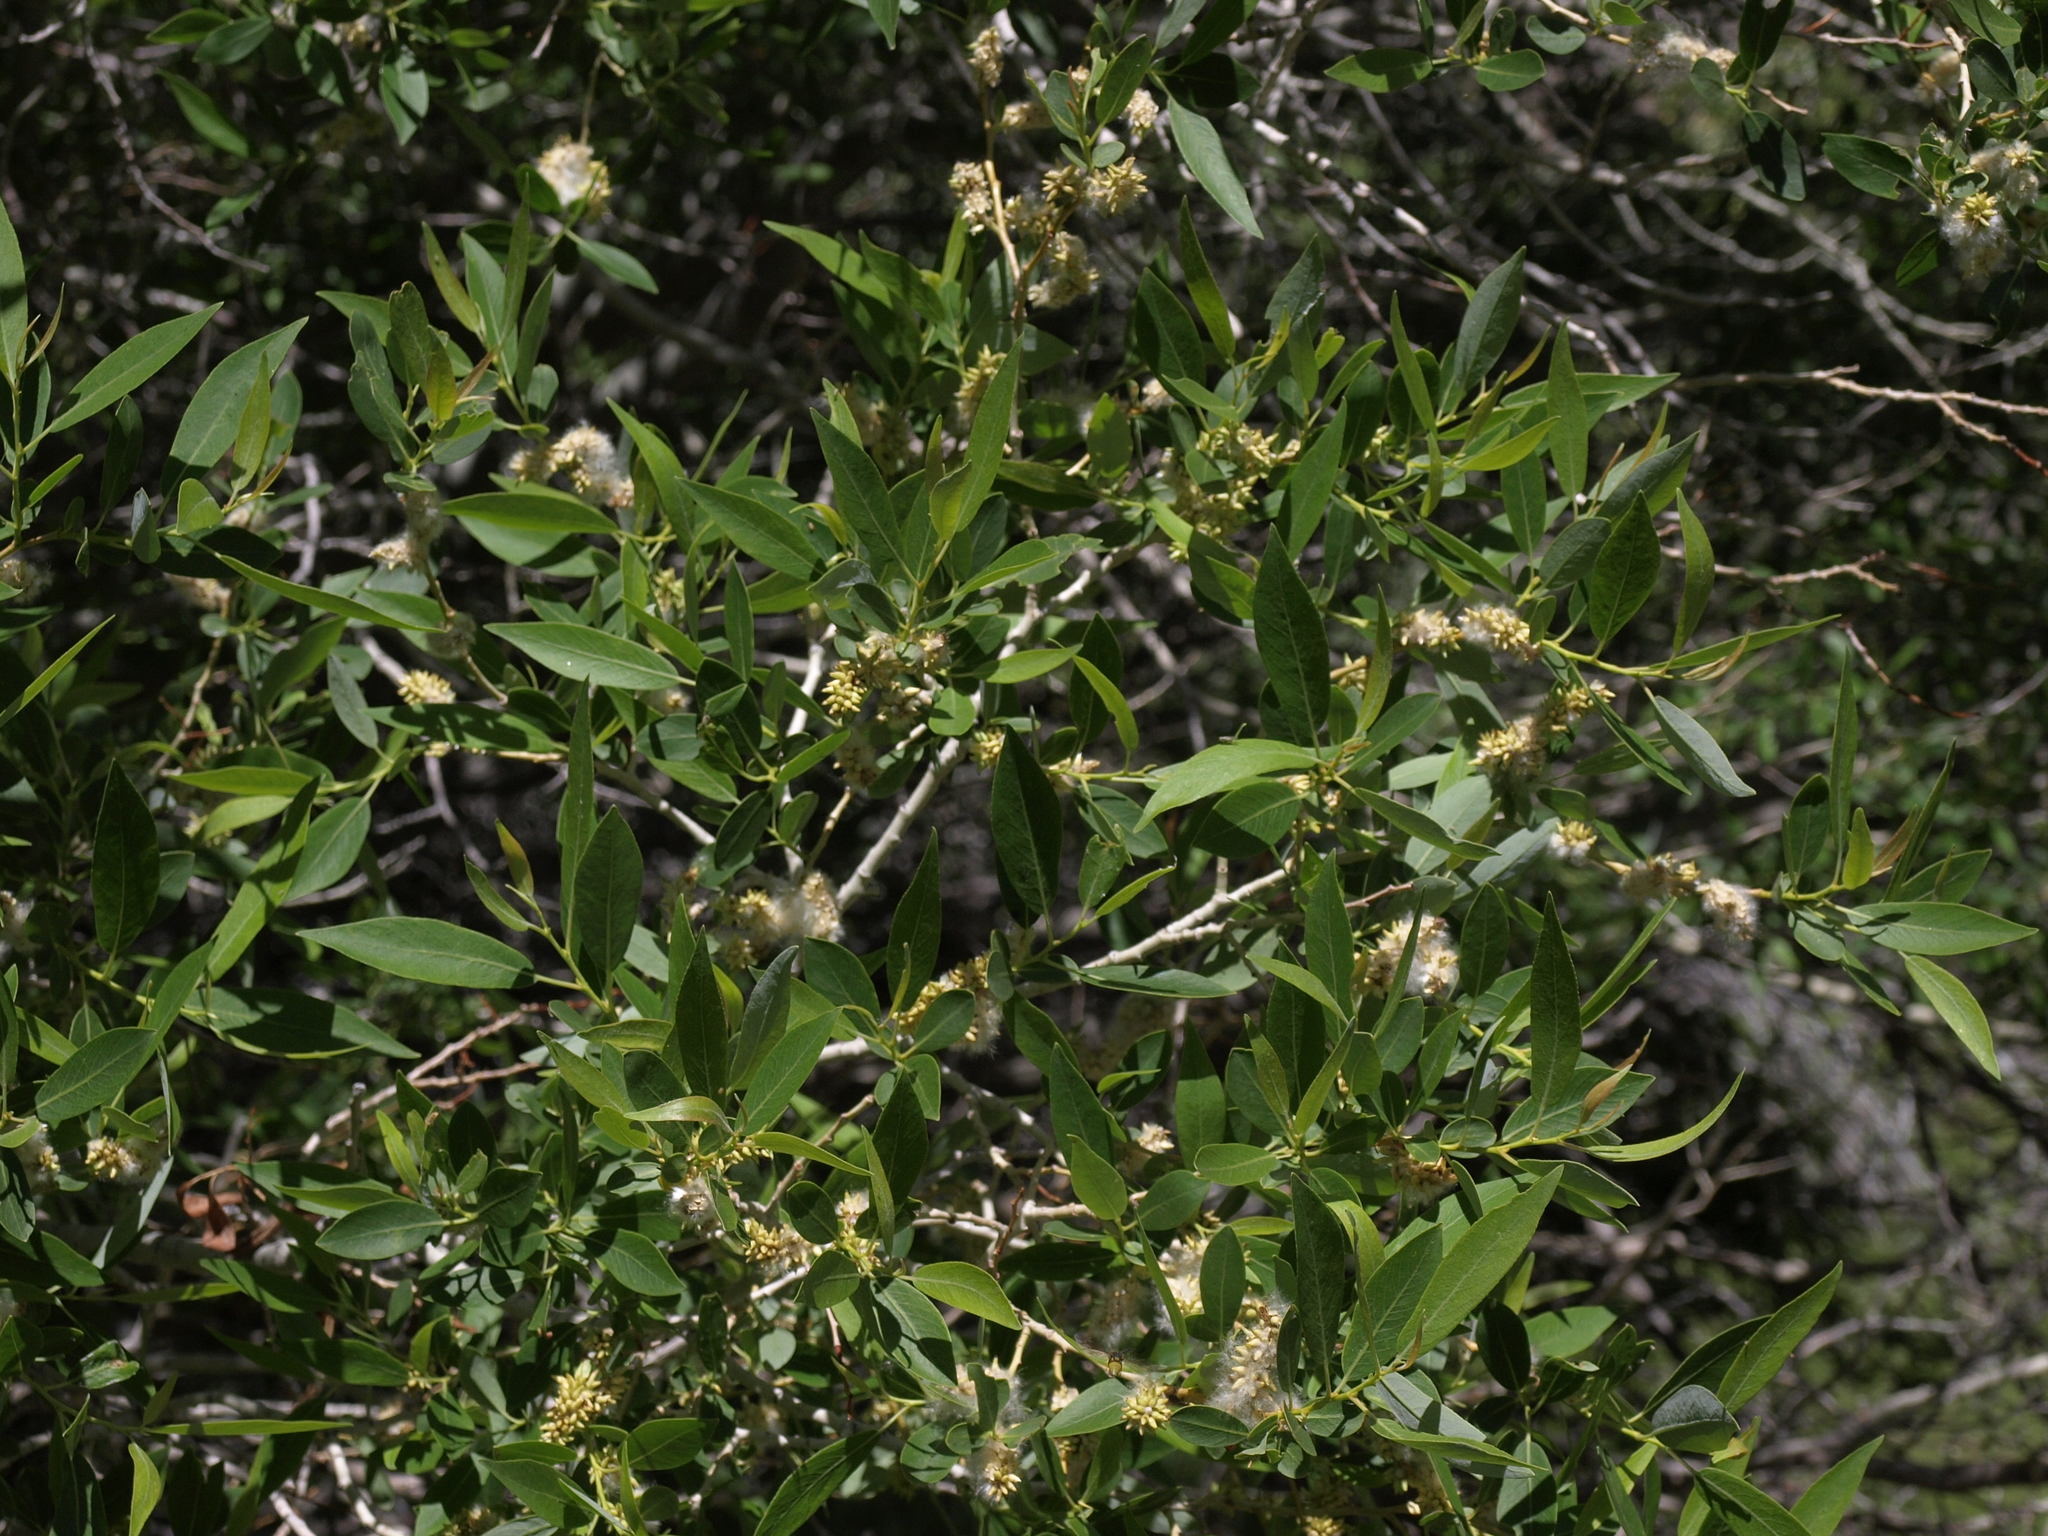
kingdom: Plantae
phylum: Tracheophyta
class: Magnoliopsida
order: Malpighiales
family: Salicaceae
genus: Salix
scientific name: Salix lutea
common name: Yellow willow
